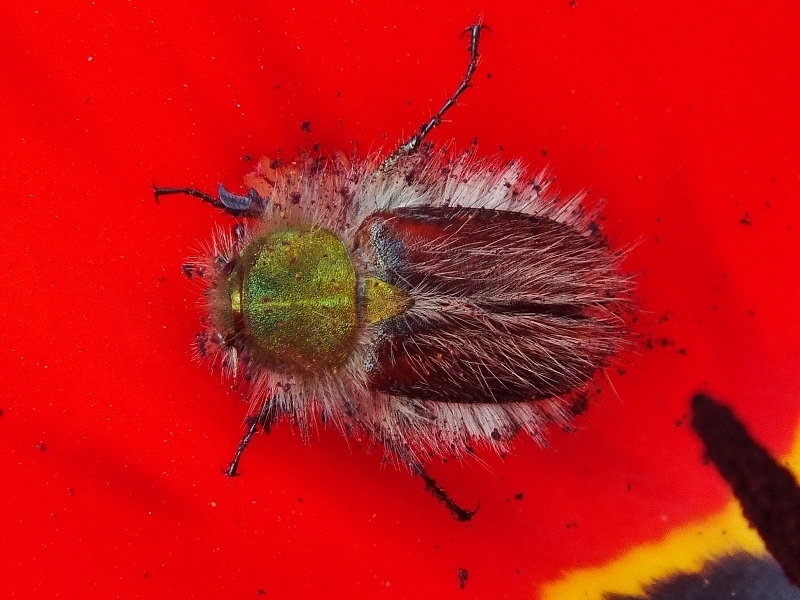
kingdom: Animalia
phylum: Arthropoda
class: Insecta
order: Coleoptera
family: Glaphyridae
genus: Pygopleurus
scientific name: Pygopleurus vulpes
